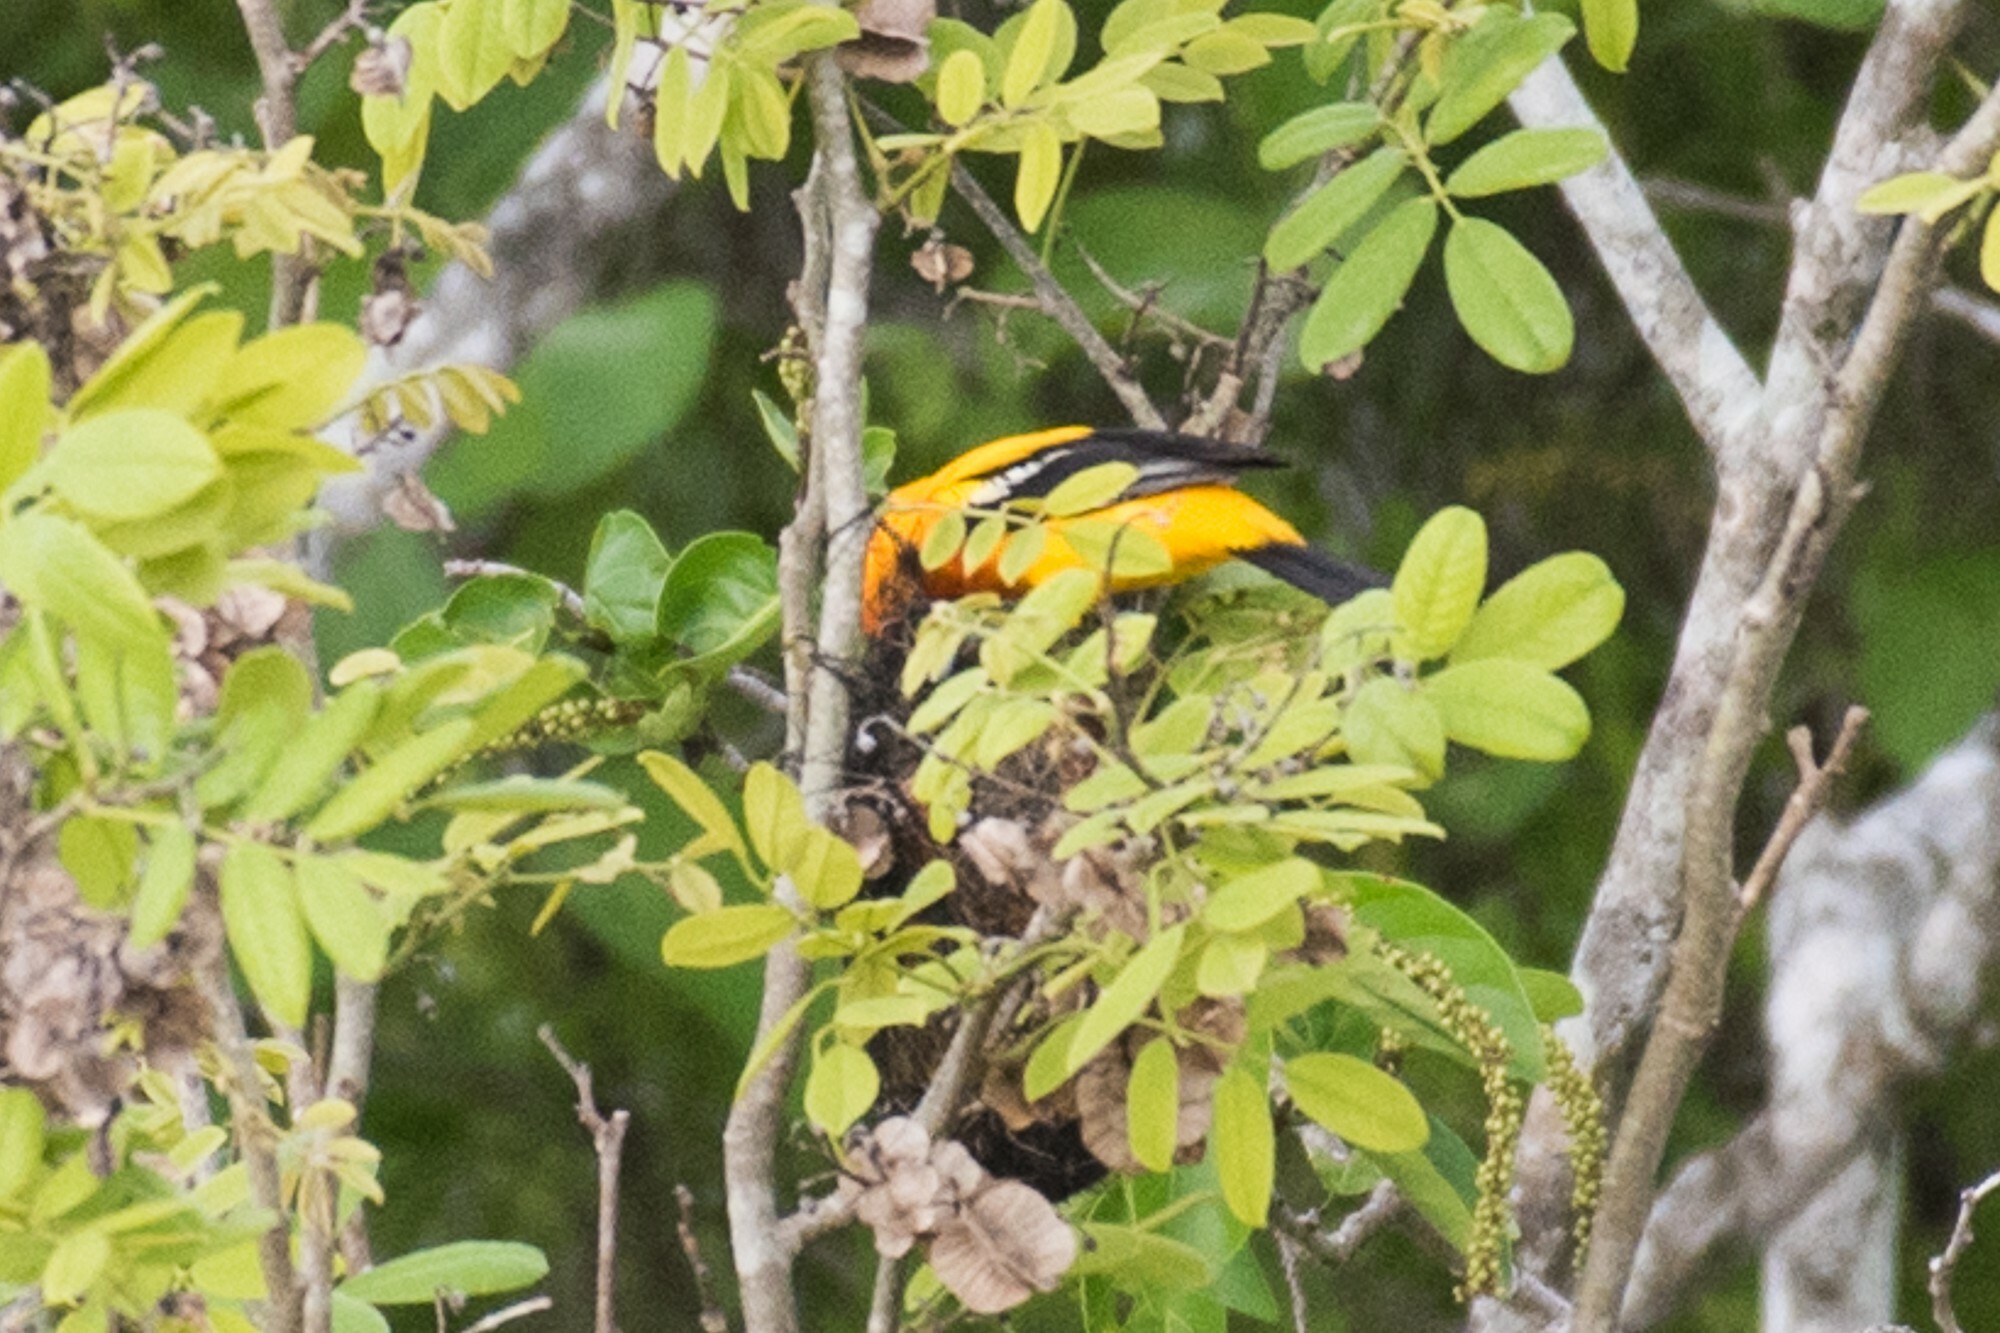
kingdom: Animalia
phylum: Chordata
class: Aves
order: Passeriformes
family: Icteridae
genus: Icterus
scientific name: Icterus auratus
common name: Orange oriole
